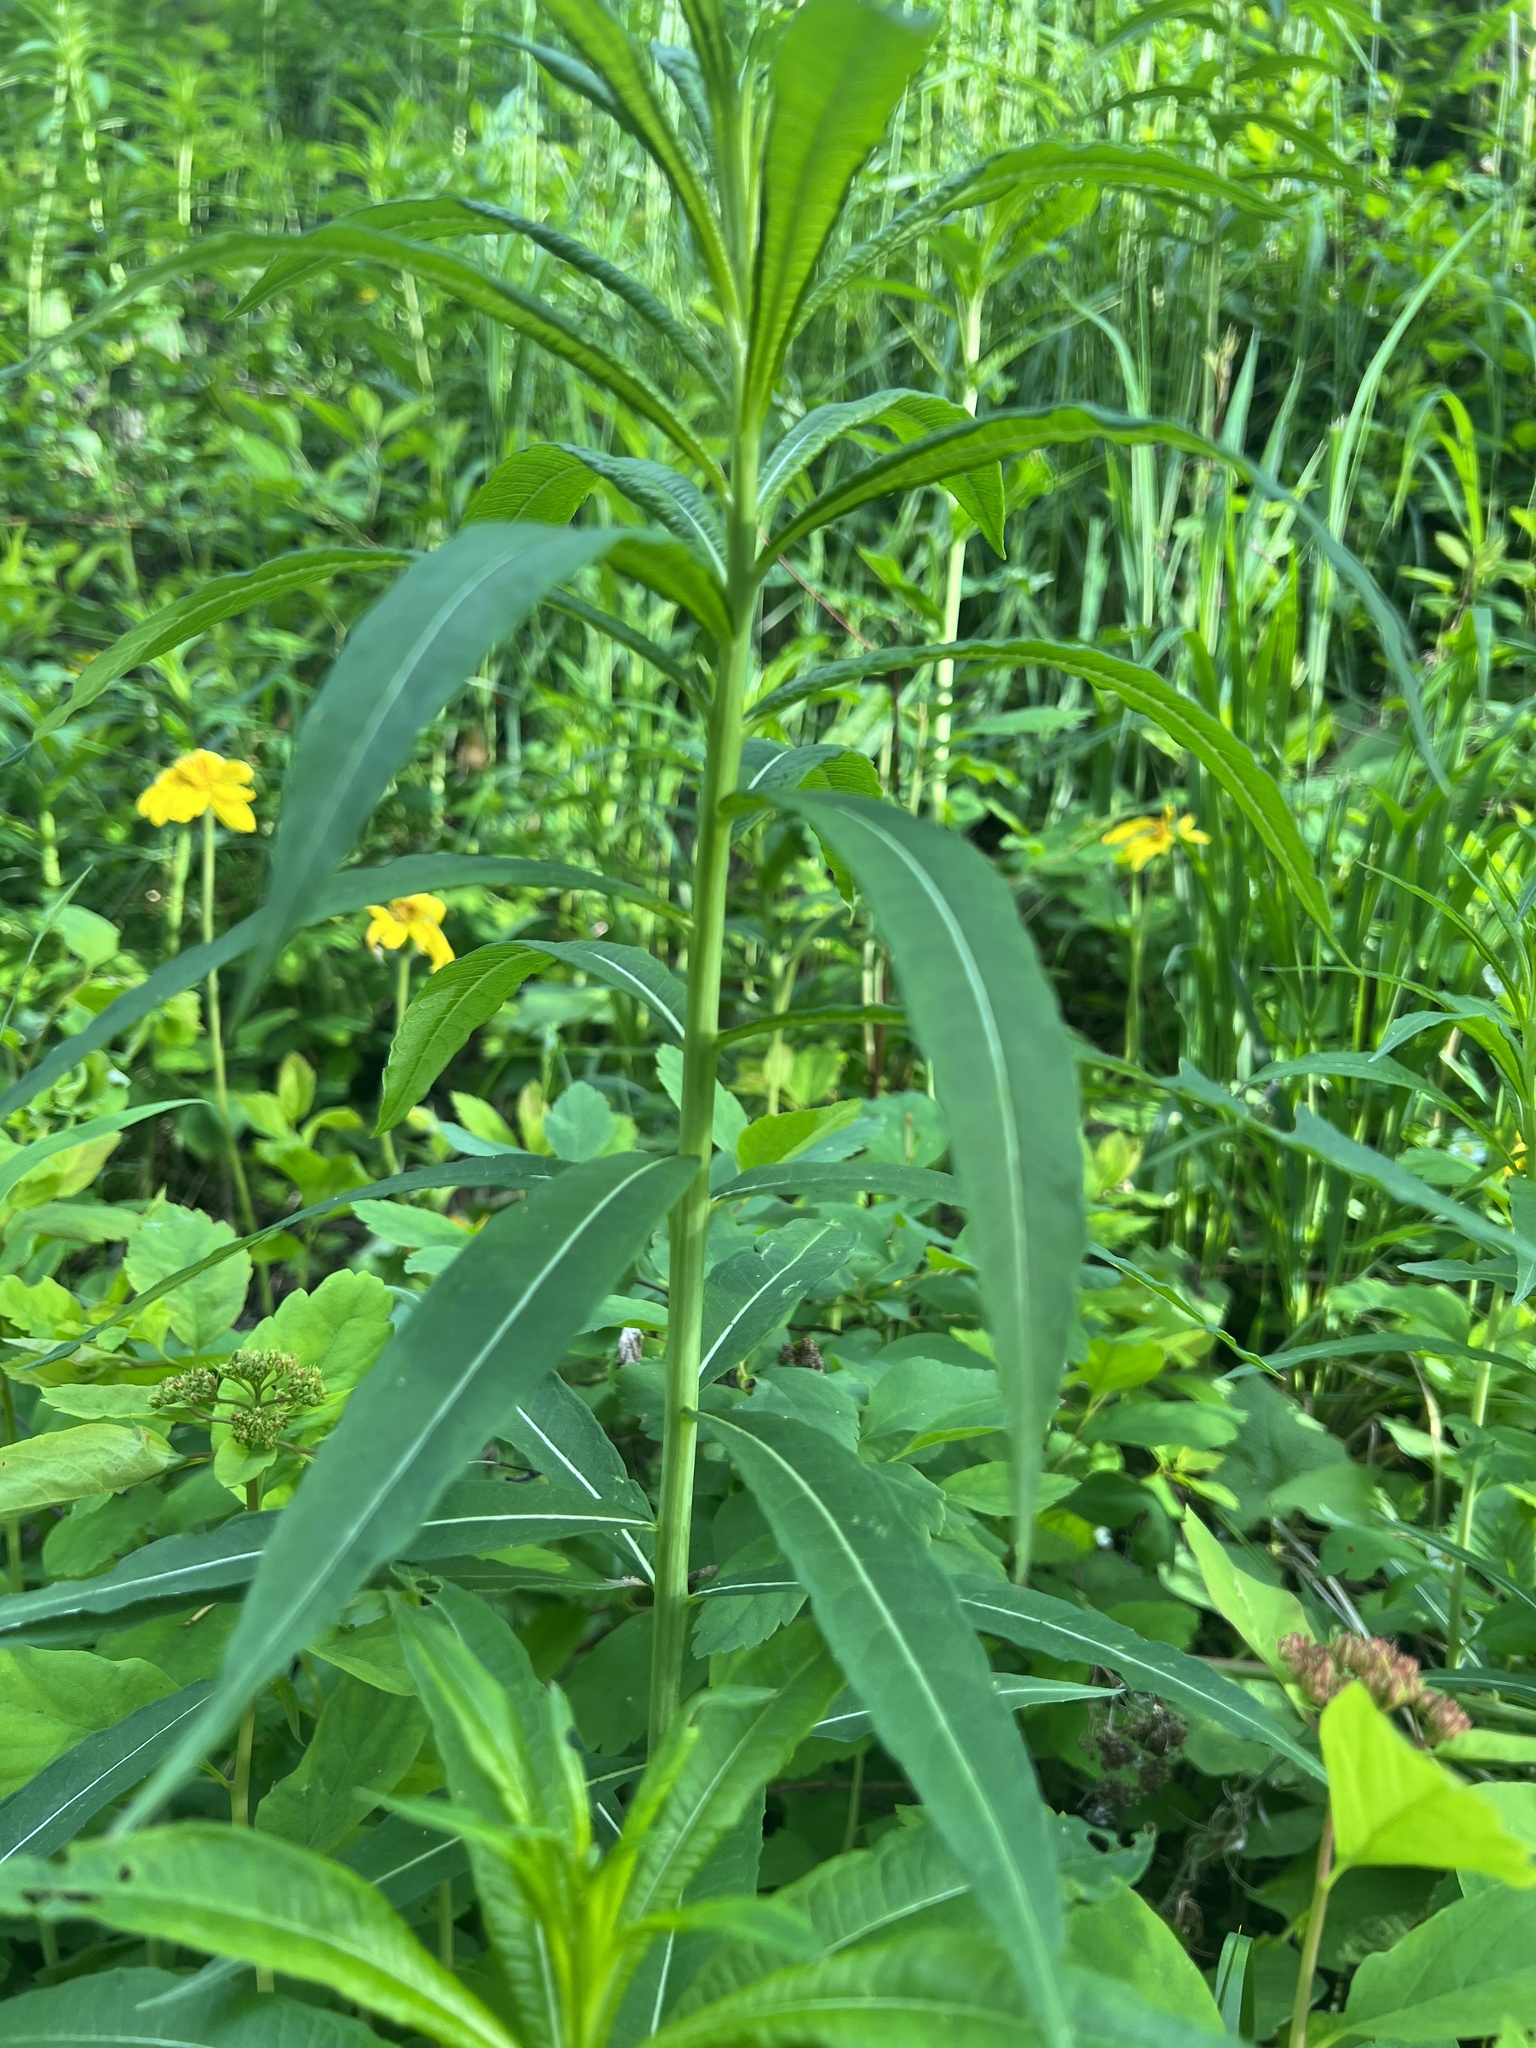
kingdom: Plantae
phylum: Tracheophyta
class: Magnoliopsida
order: Myrtales
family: Onagraceae
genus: Chamaenerion
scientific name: Chamaenerion angustifolium
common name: Fireweed
